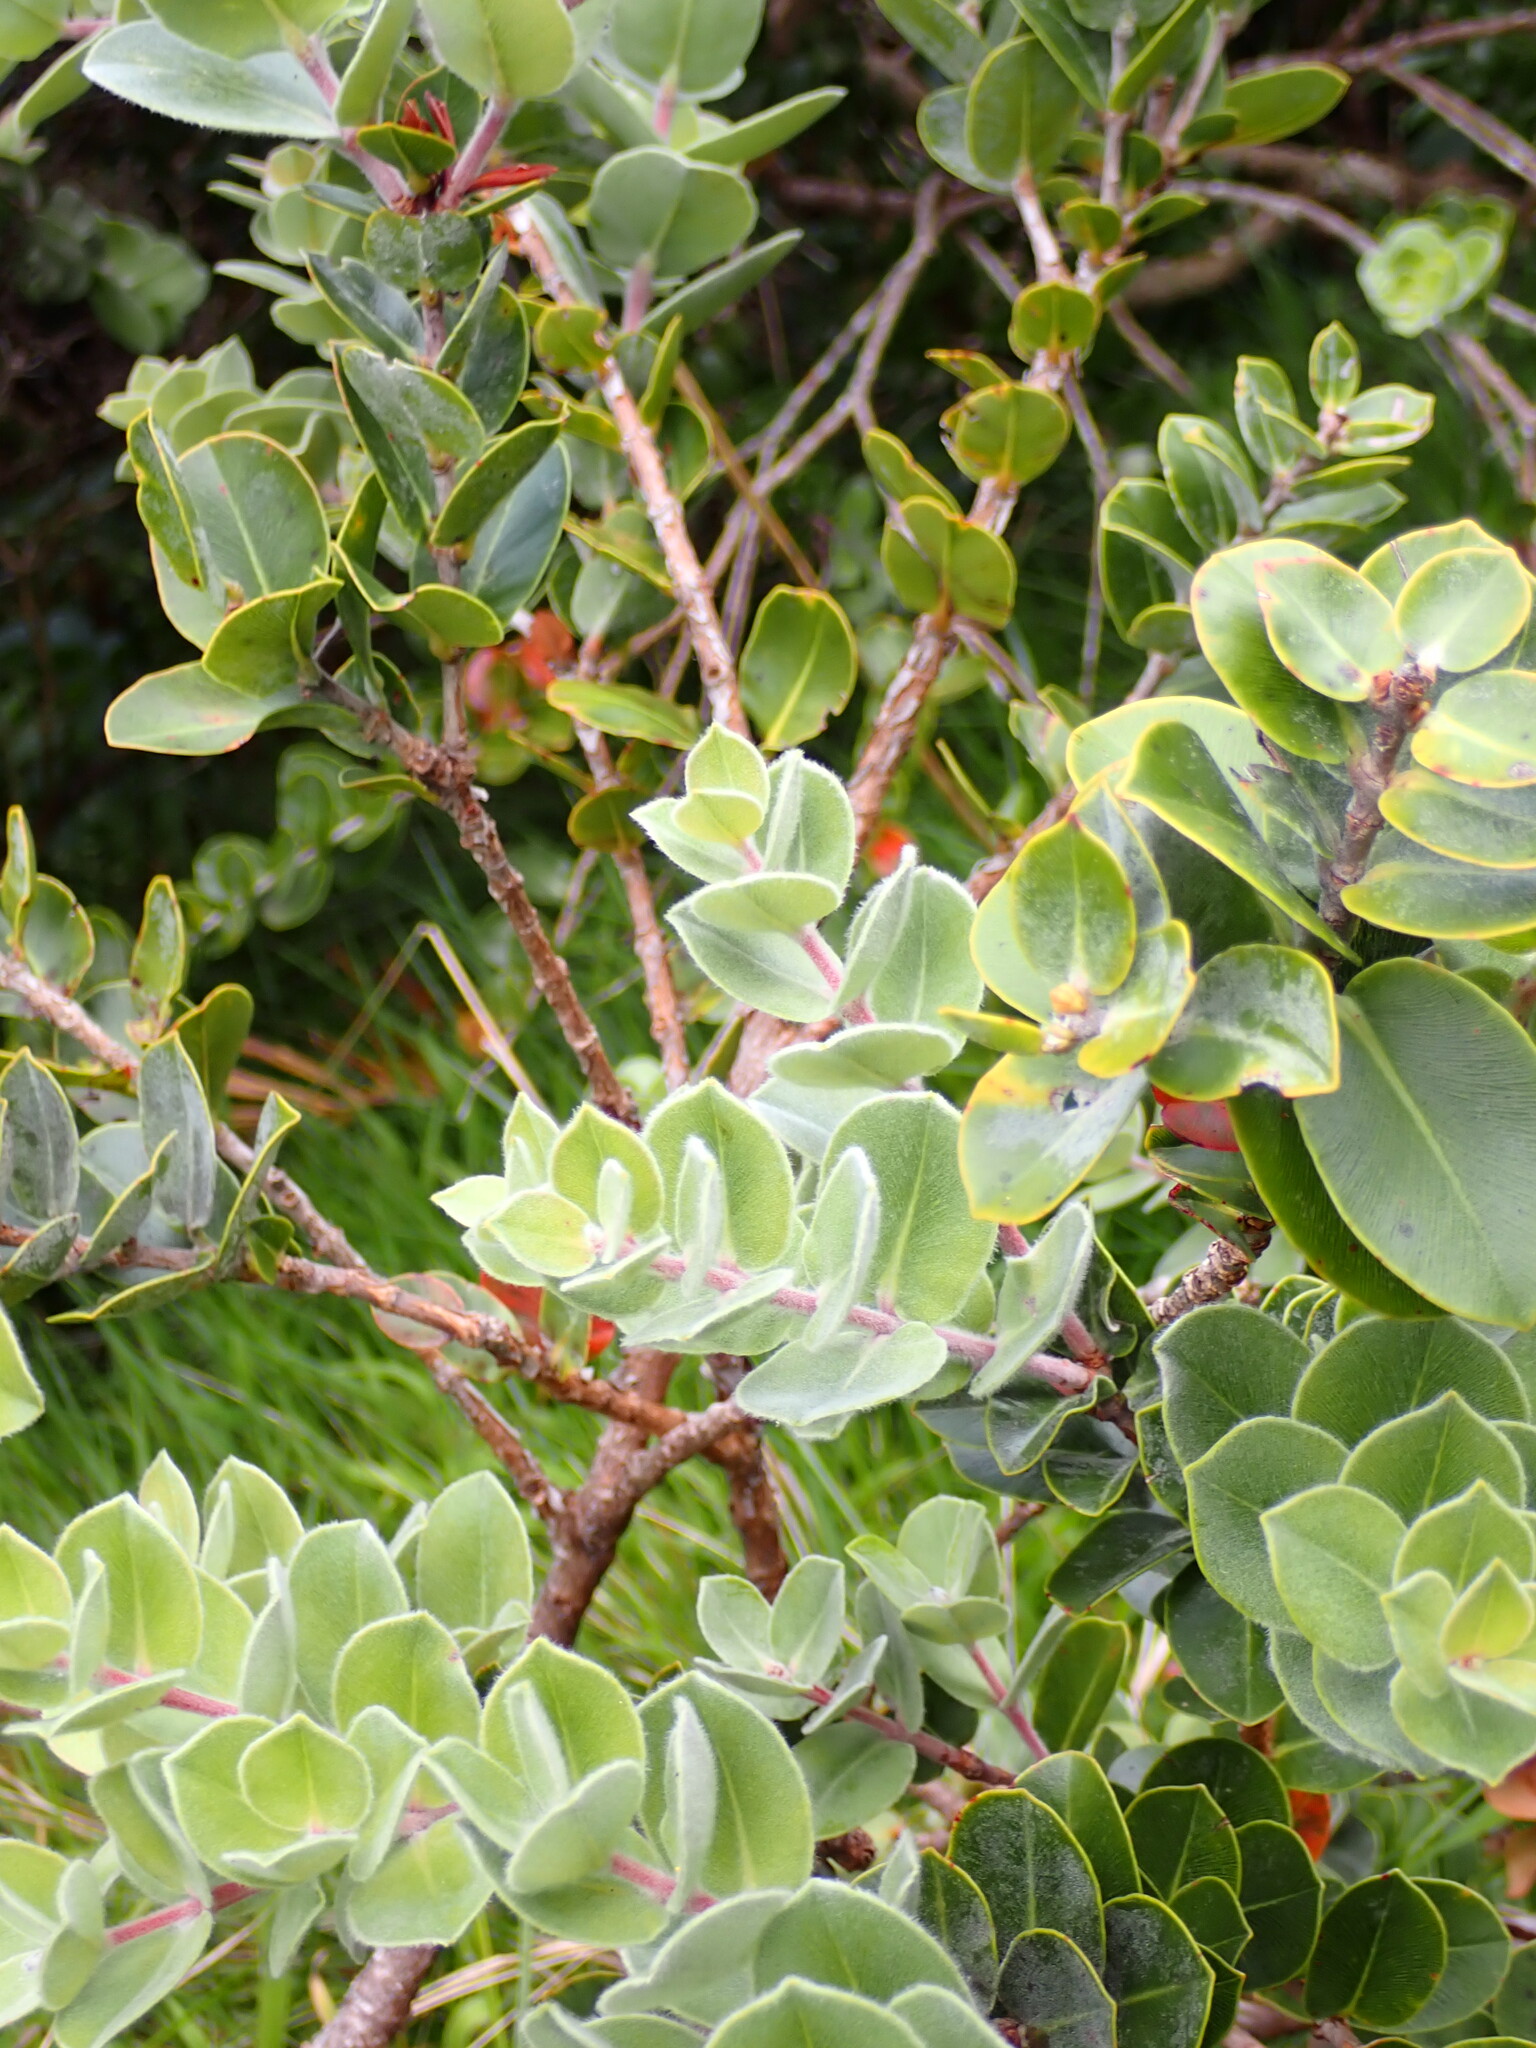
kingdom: Plantae
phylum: Tracheophyta
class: Magnoliopsida
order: Myrtales
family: Myrtaceae
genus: Metrosideros
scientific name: Metrosideros nervulosa
